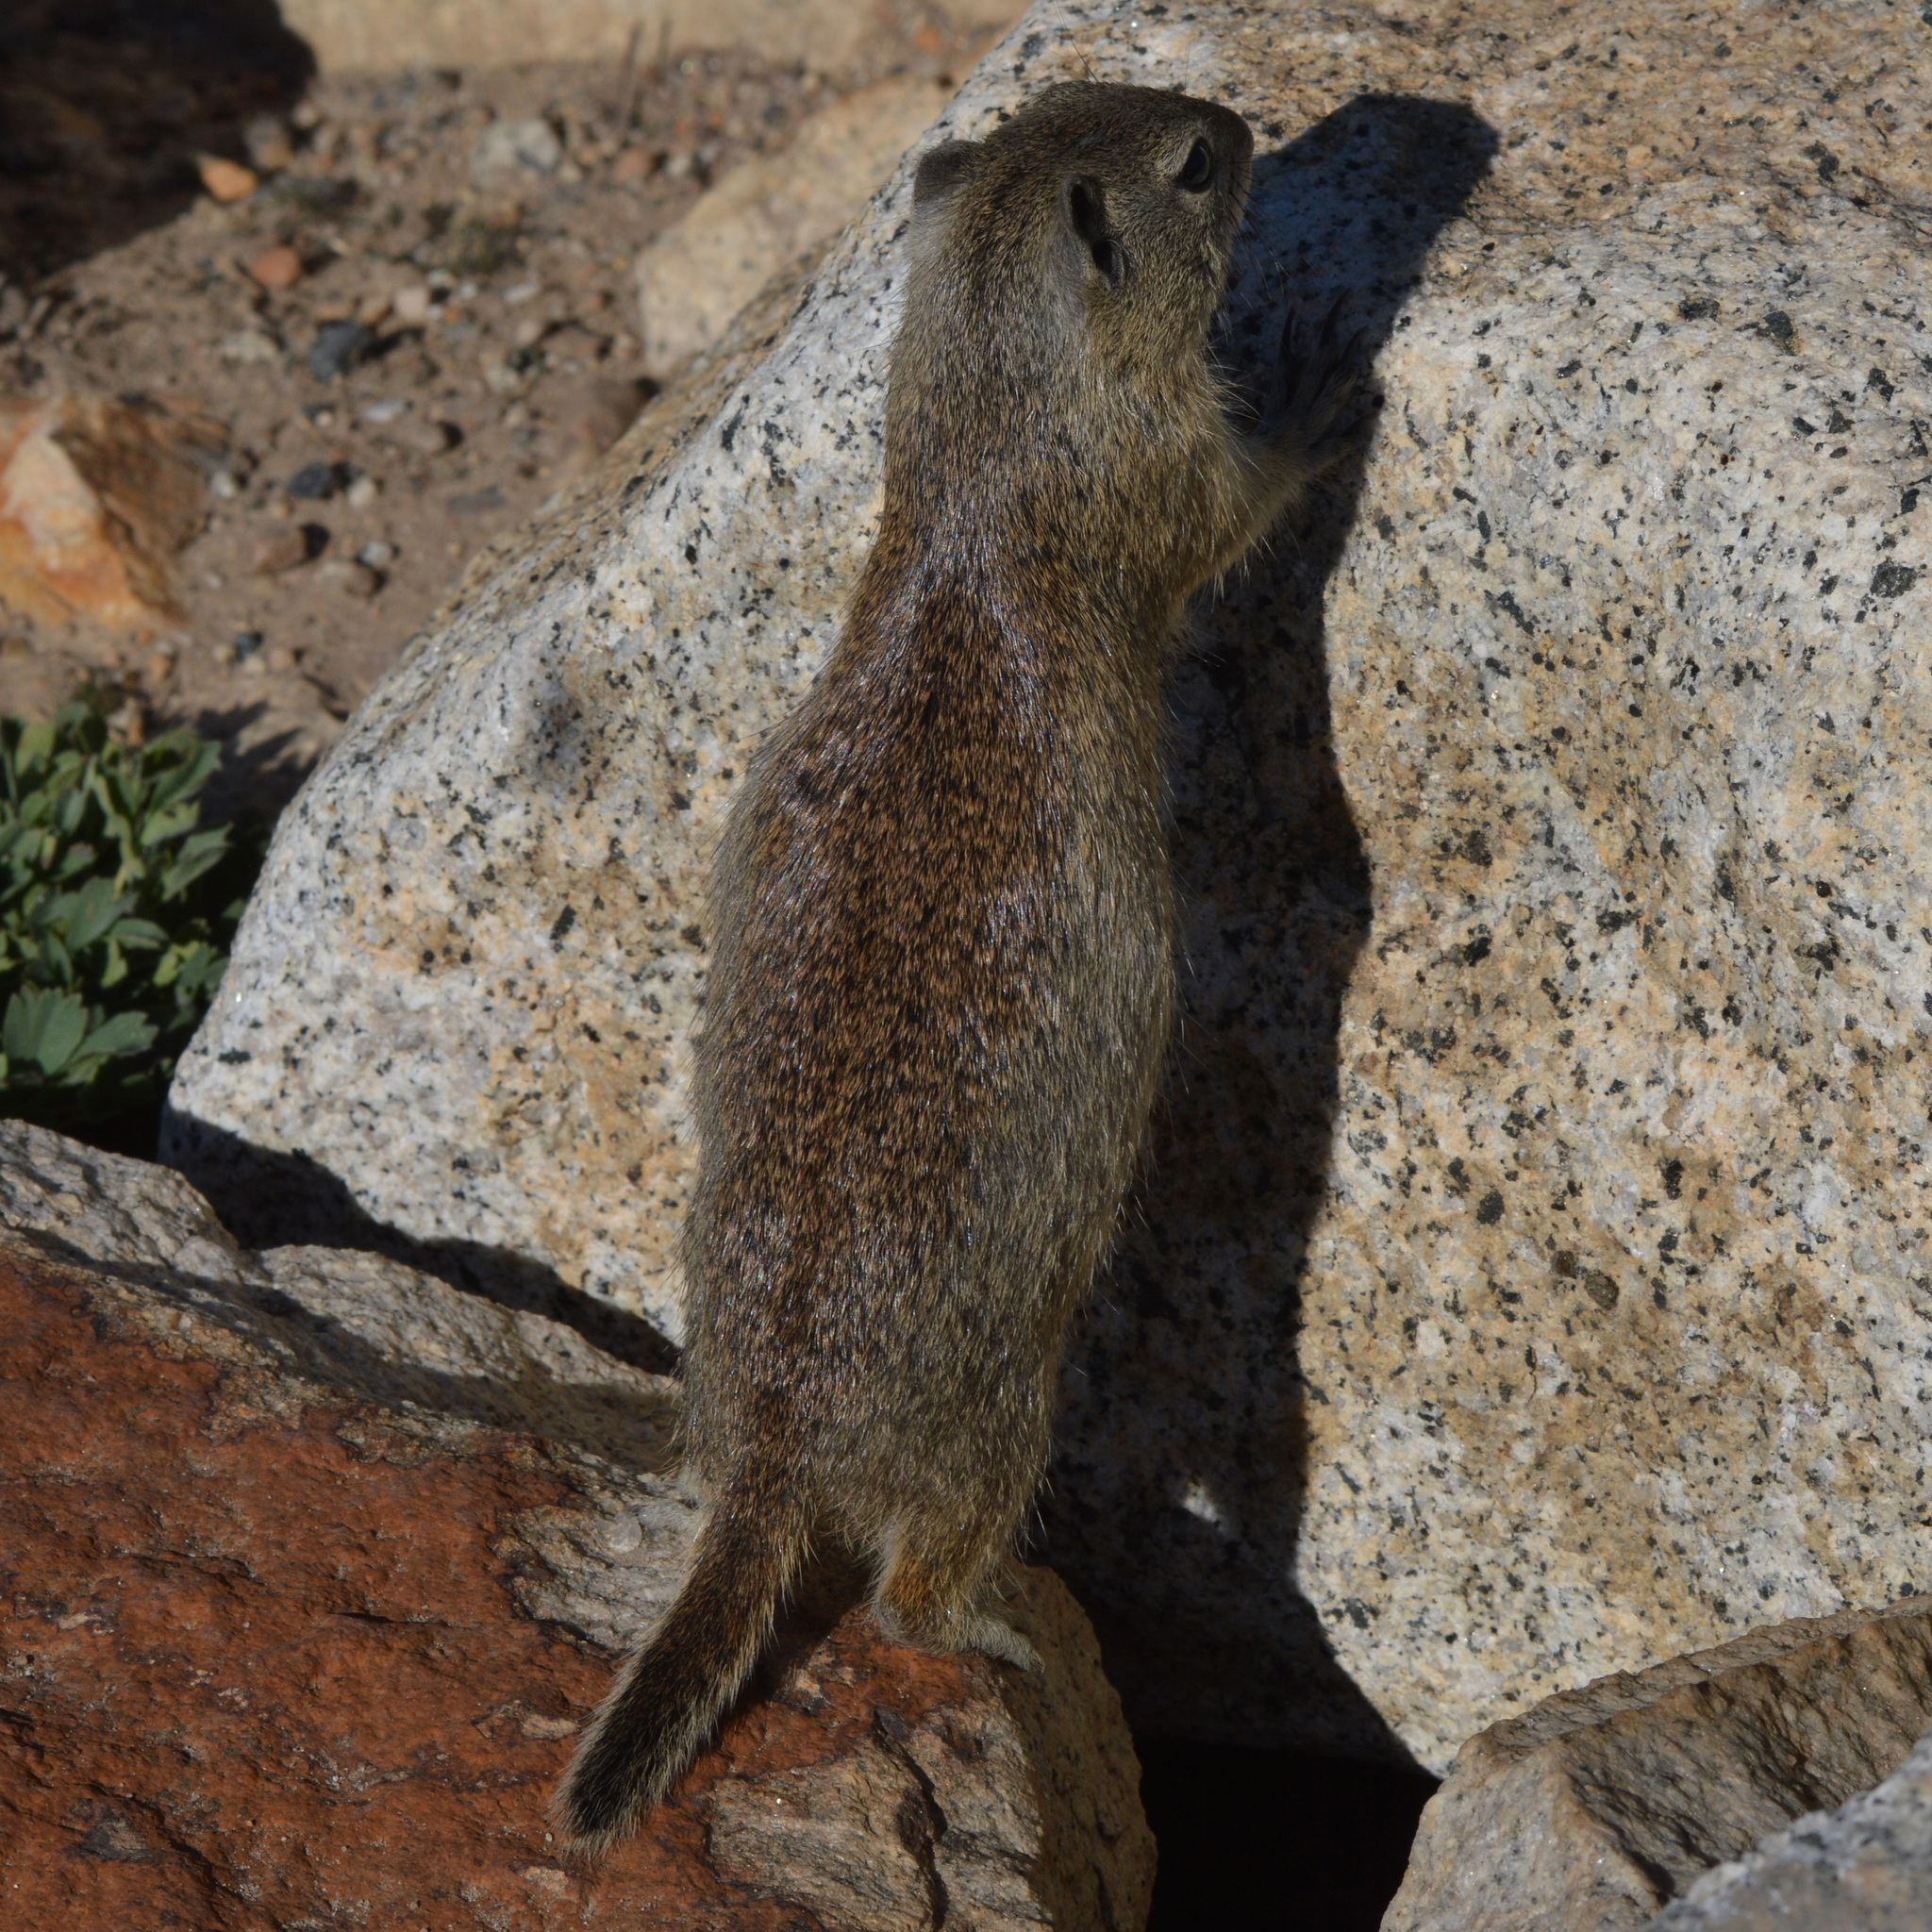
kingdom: Animalia
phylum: Chordata
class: Mammalia
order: Rodentia
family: Sciuridae
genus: Urocitellus
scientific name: Urocitellus beldingi
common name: Belding's ground squirrel
